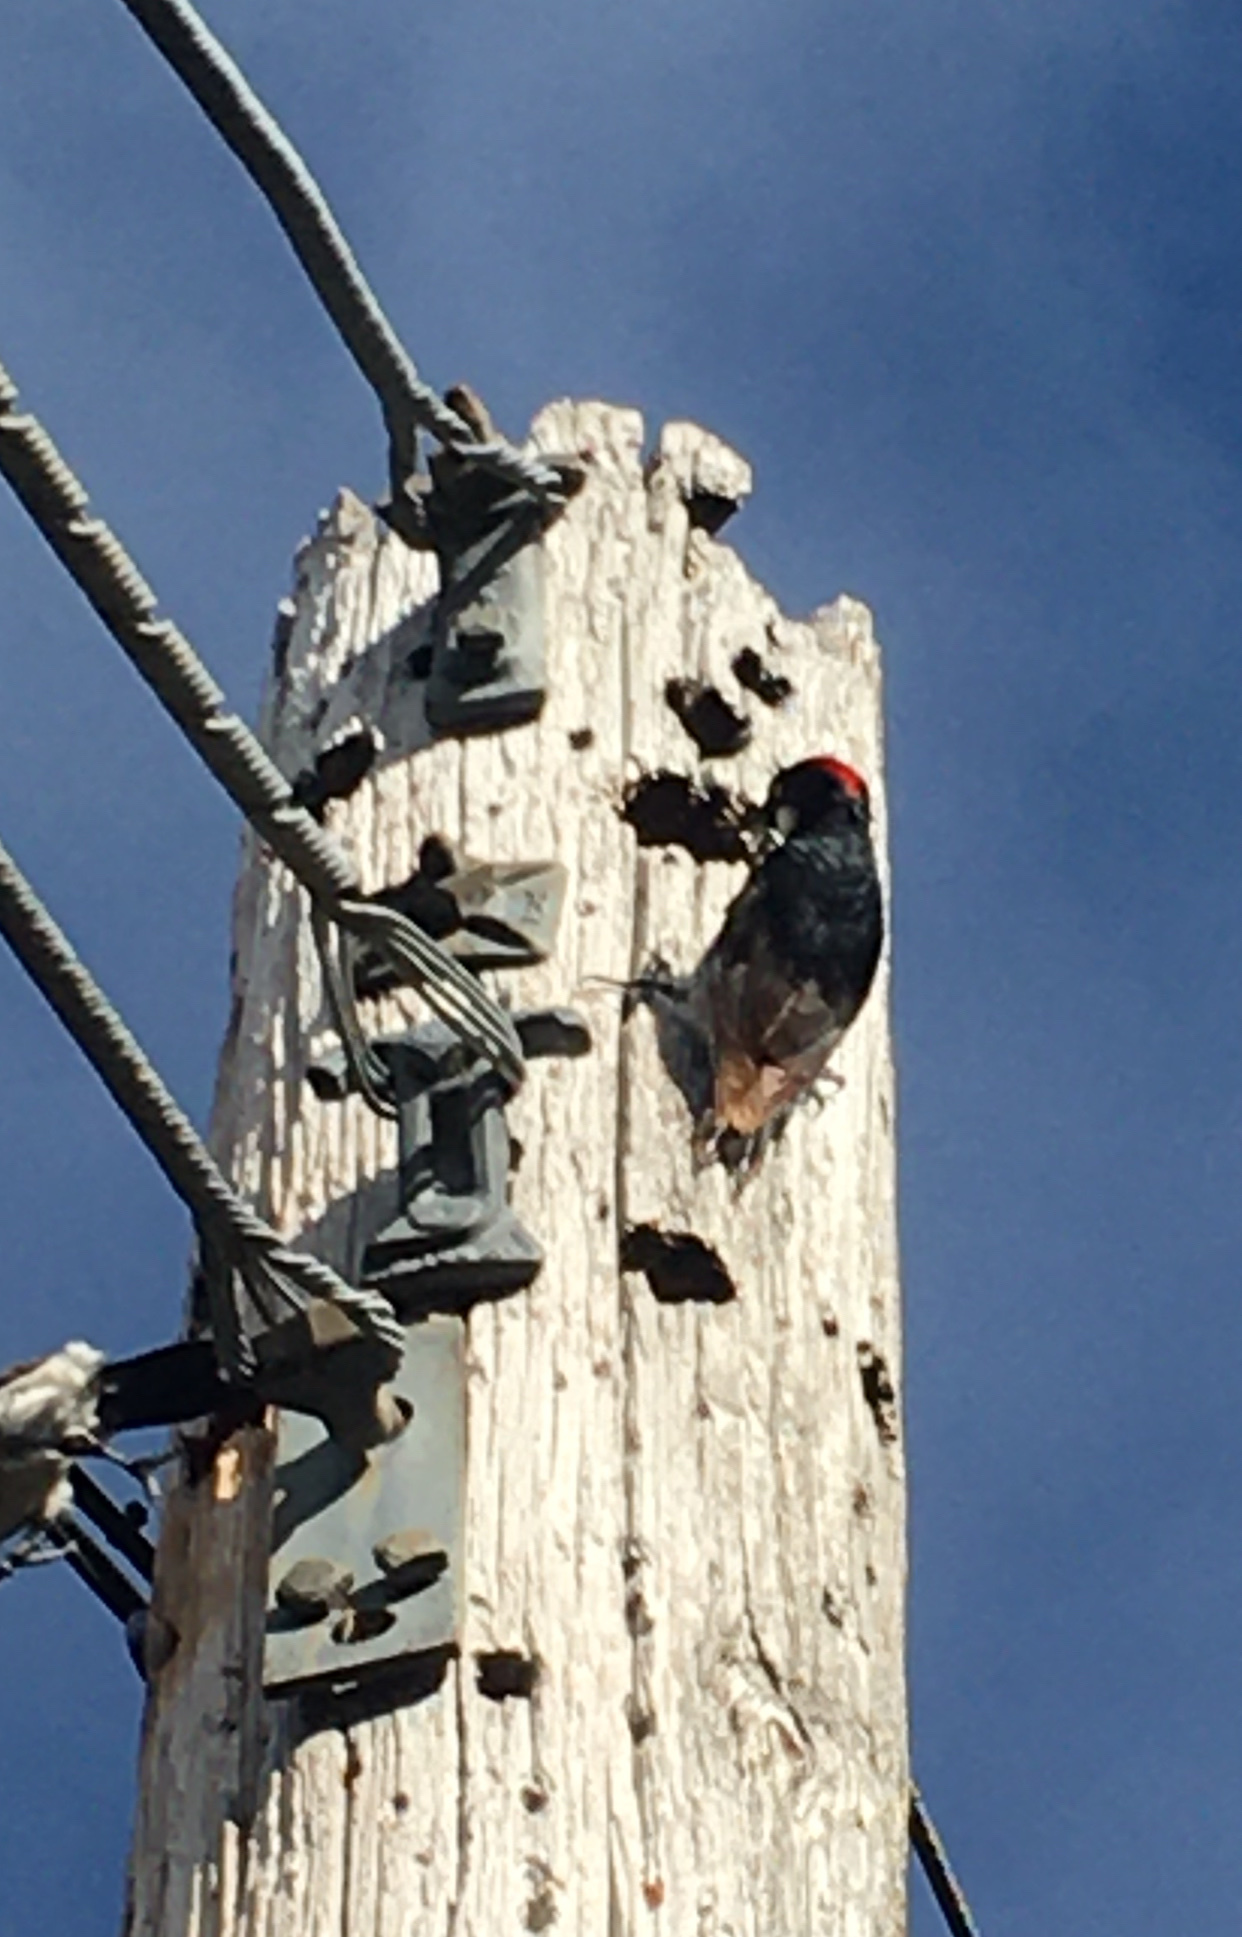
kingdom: Animalia
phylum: Chordata
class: Aves
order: Piciformes
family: Picidae
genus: Melanerpes
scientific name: Melanerpes formicivorus
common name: Acorn woodpecker
